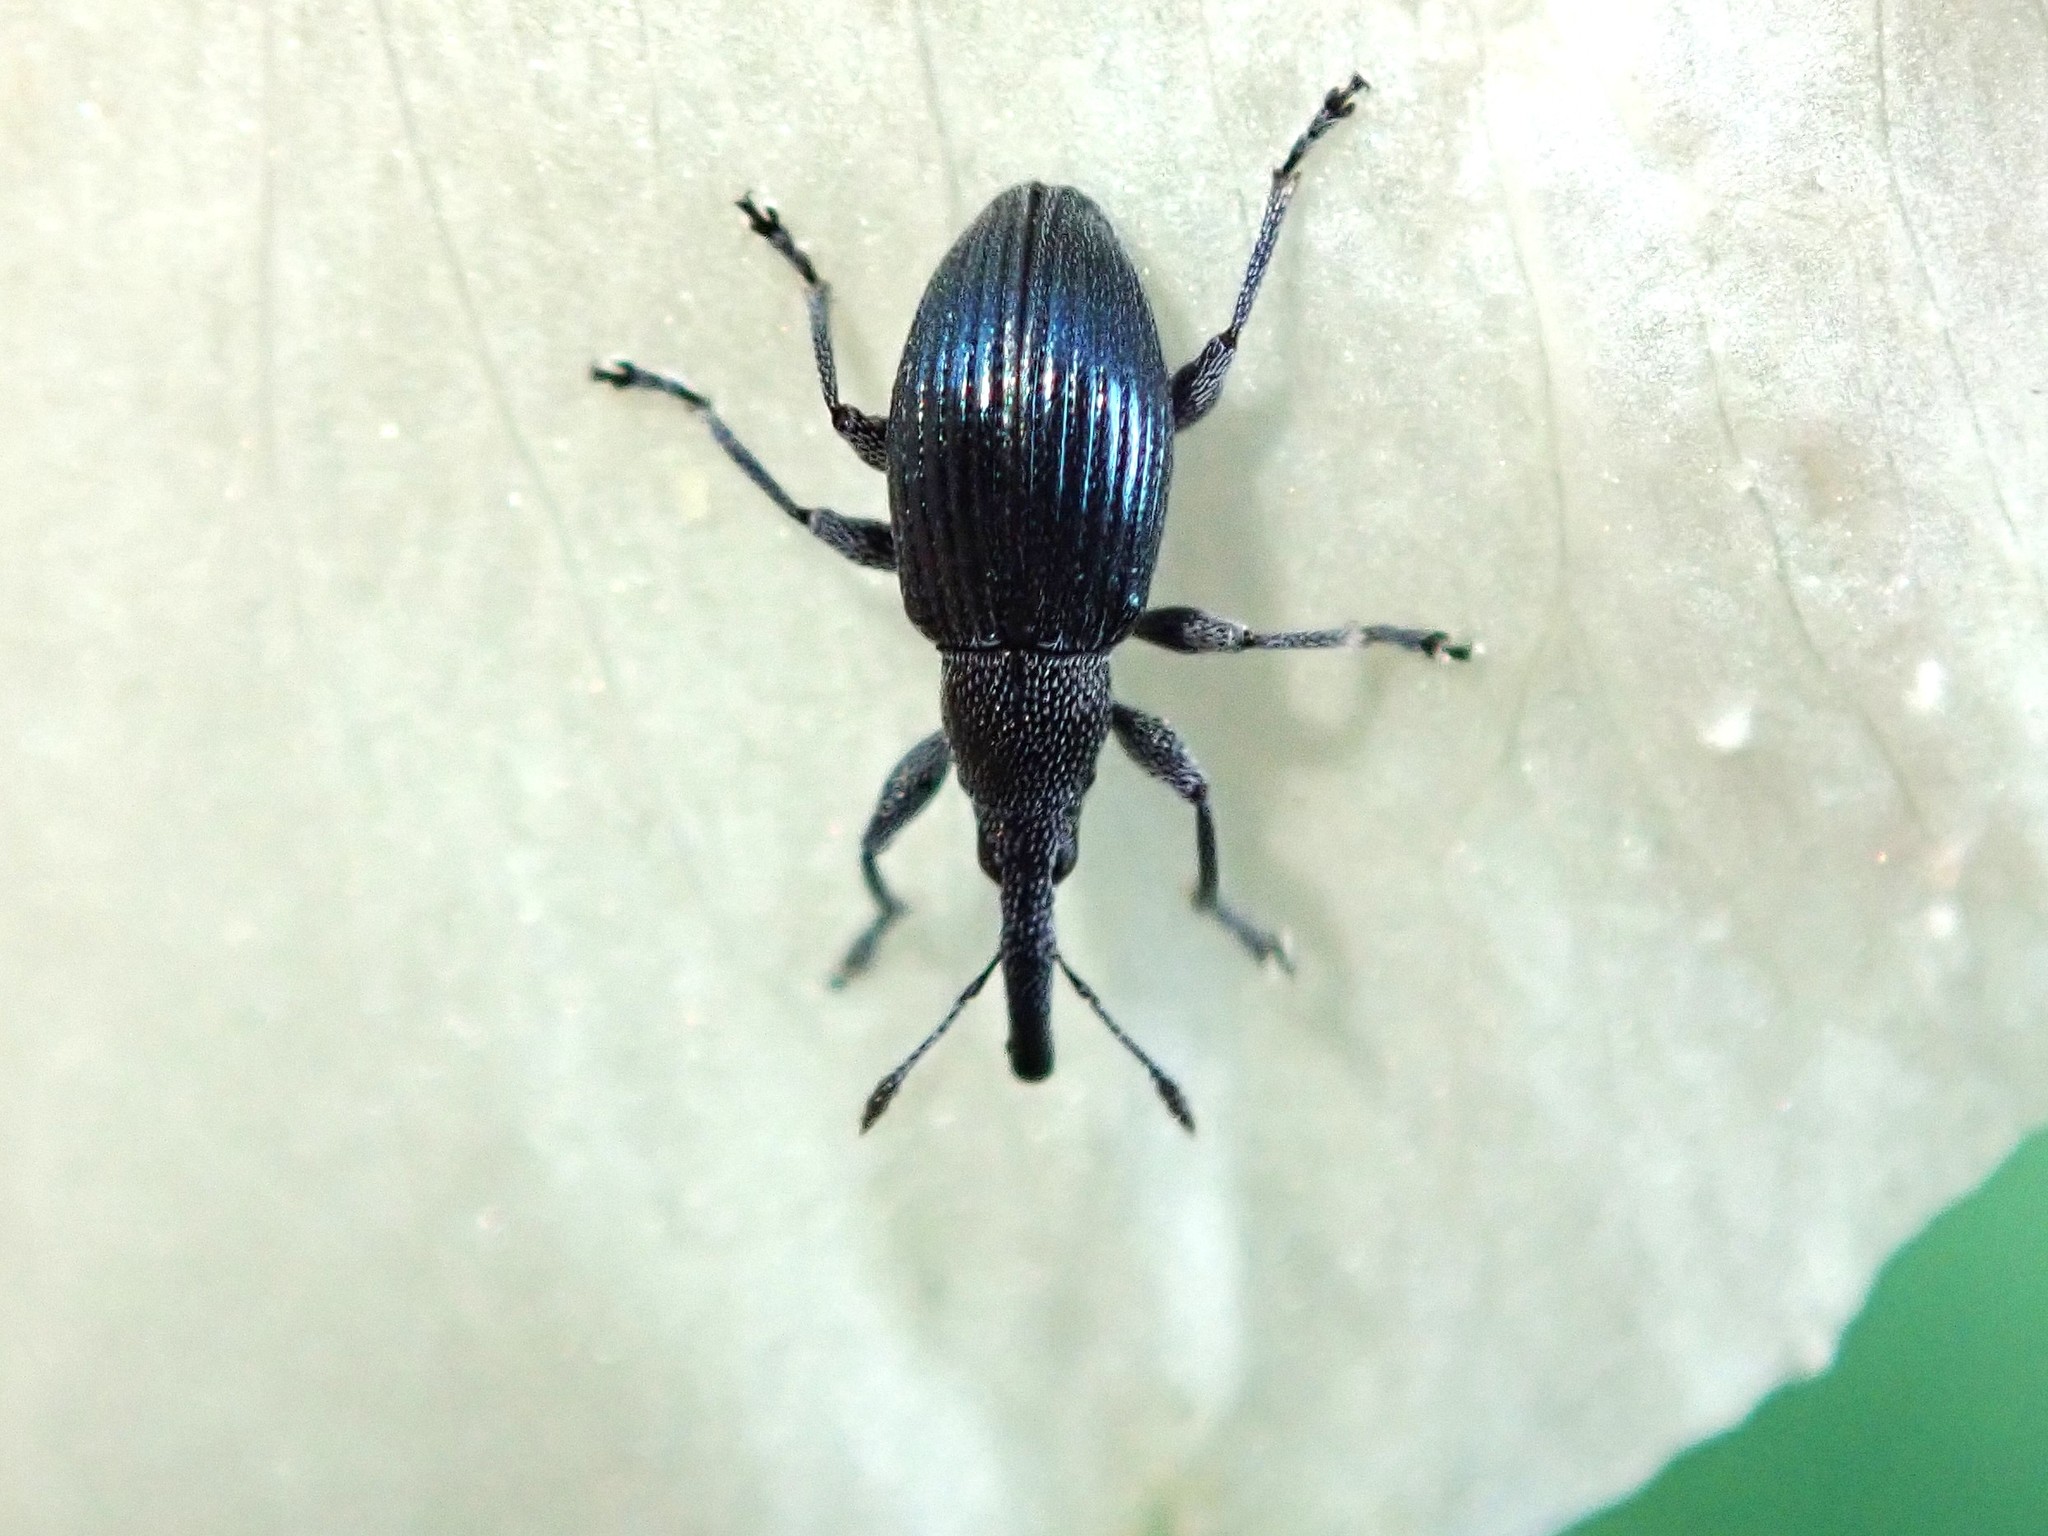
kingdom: Animalia
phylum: Arthropoda
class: Insecta
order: Coleoptera
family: Apionidae
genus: Aspidapion
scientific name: Aspidapion validum
